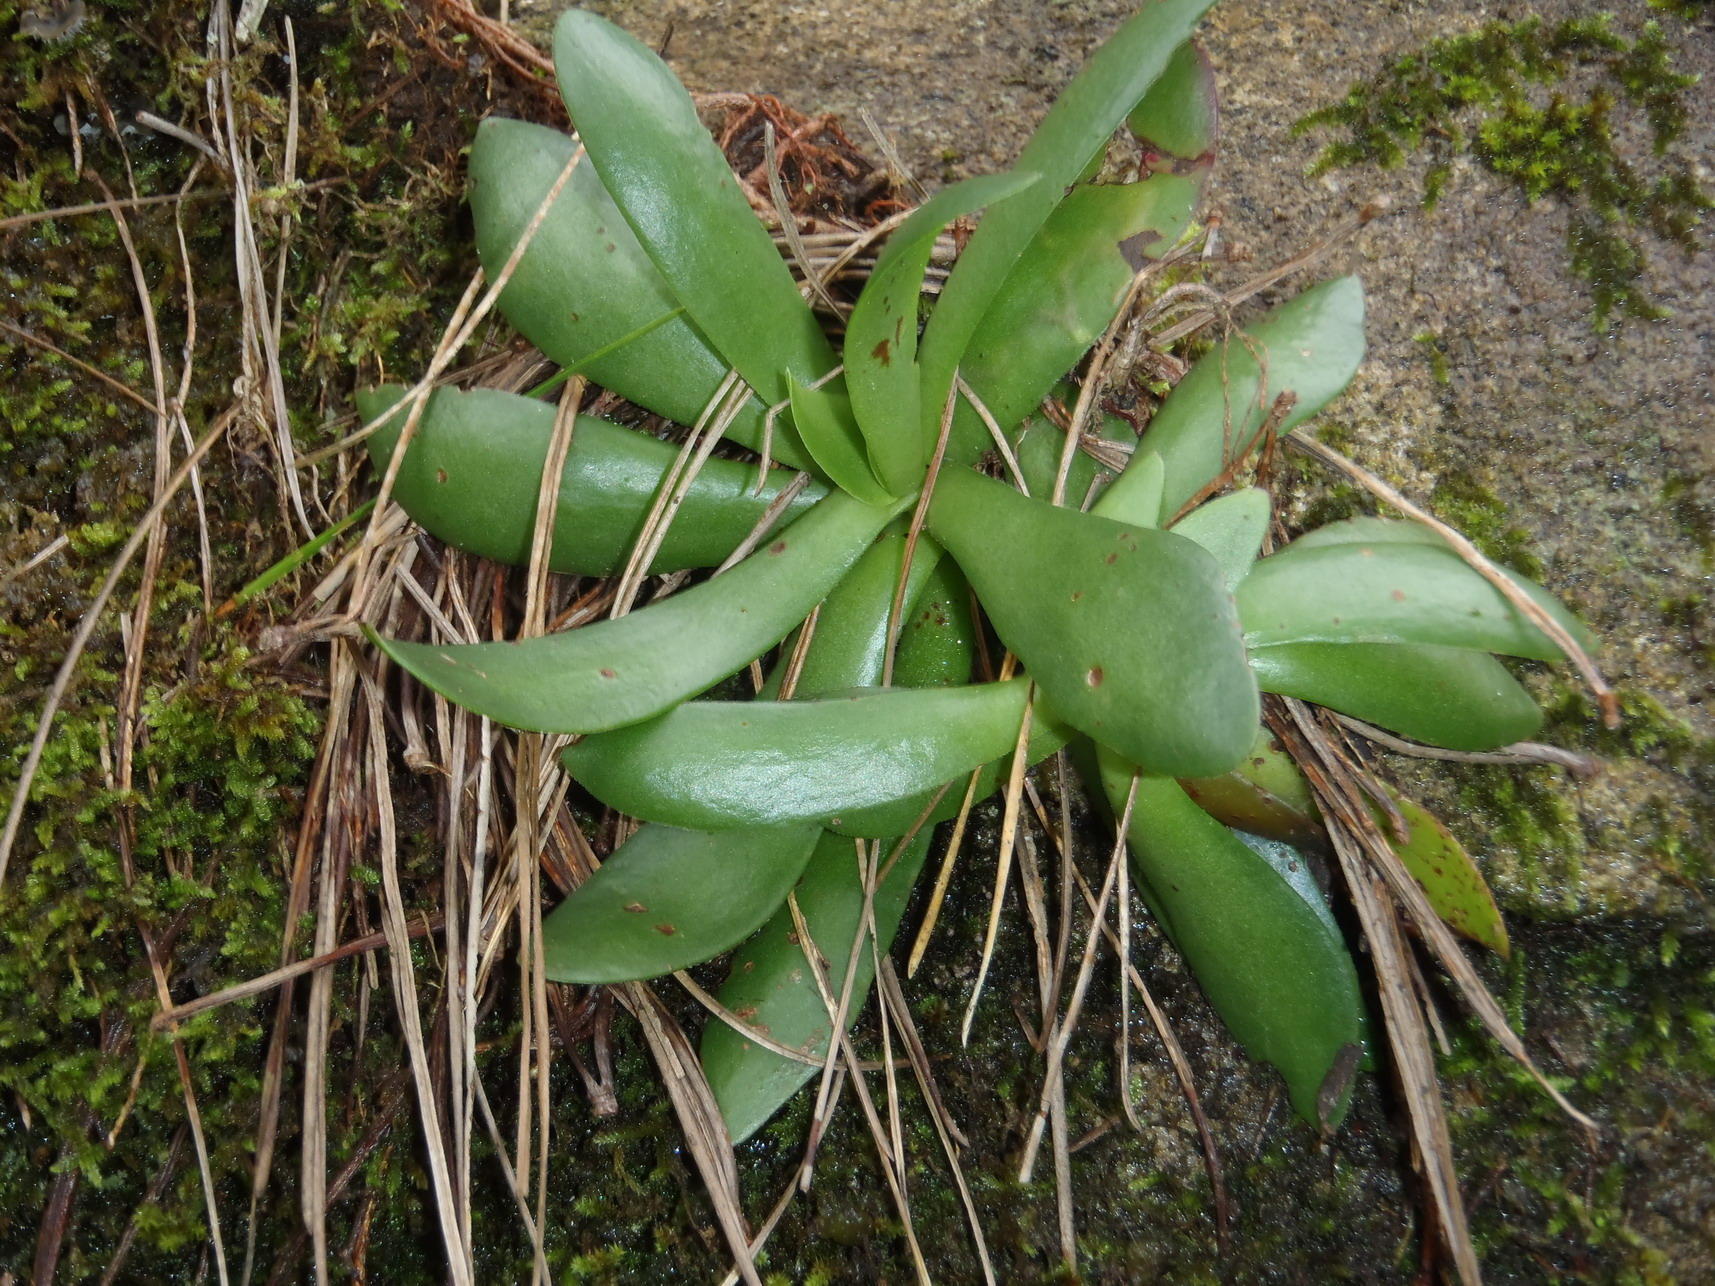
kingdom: Plantae
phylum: Tracheophyta
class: Magnoliopsida
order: Saxifragales
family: Crassulaceae
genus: Crassula
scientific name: Crassula orbicularis
